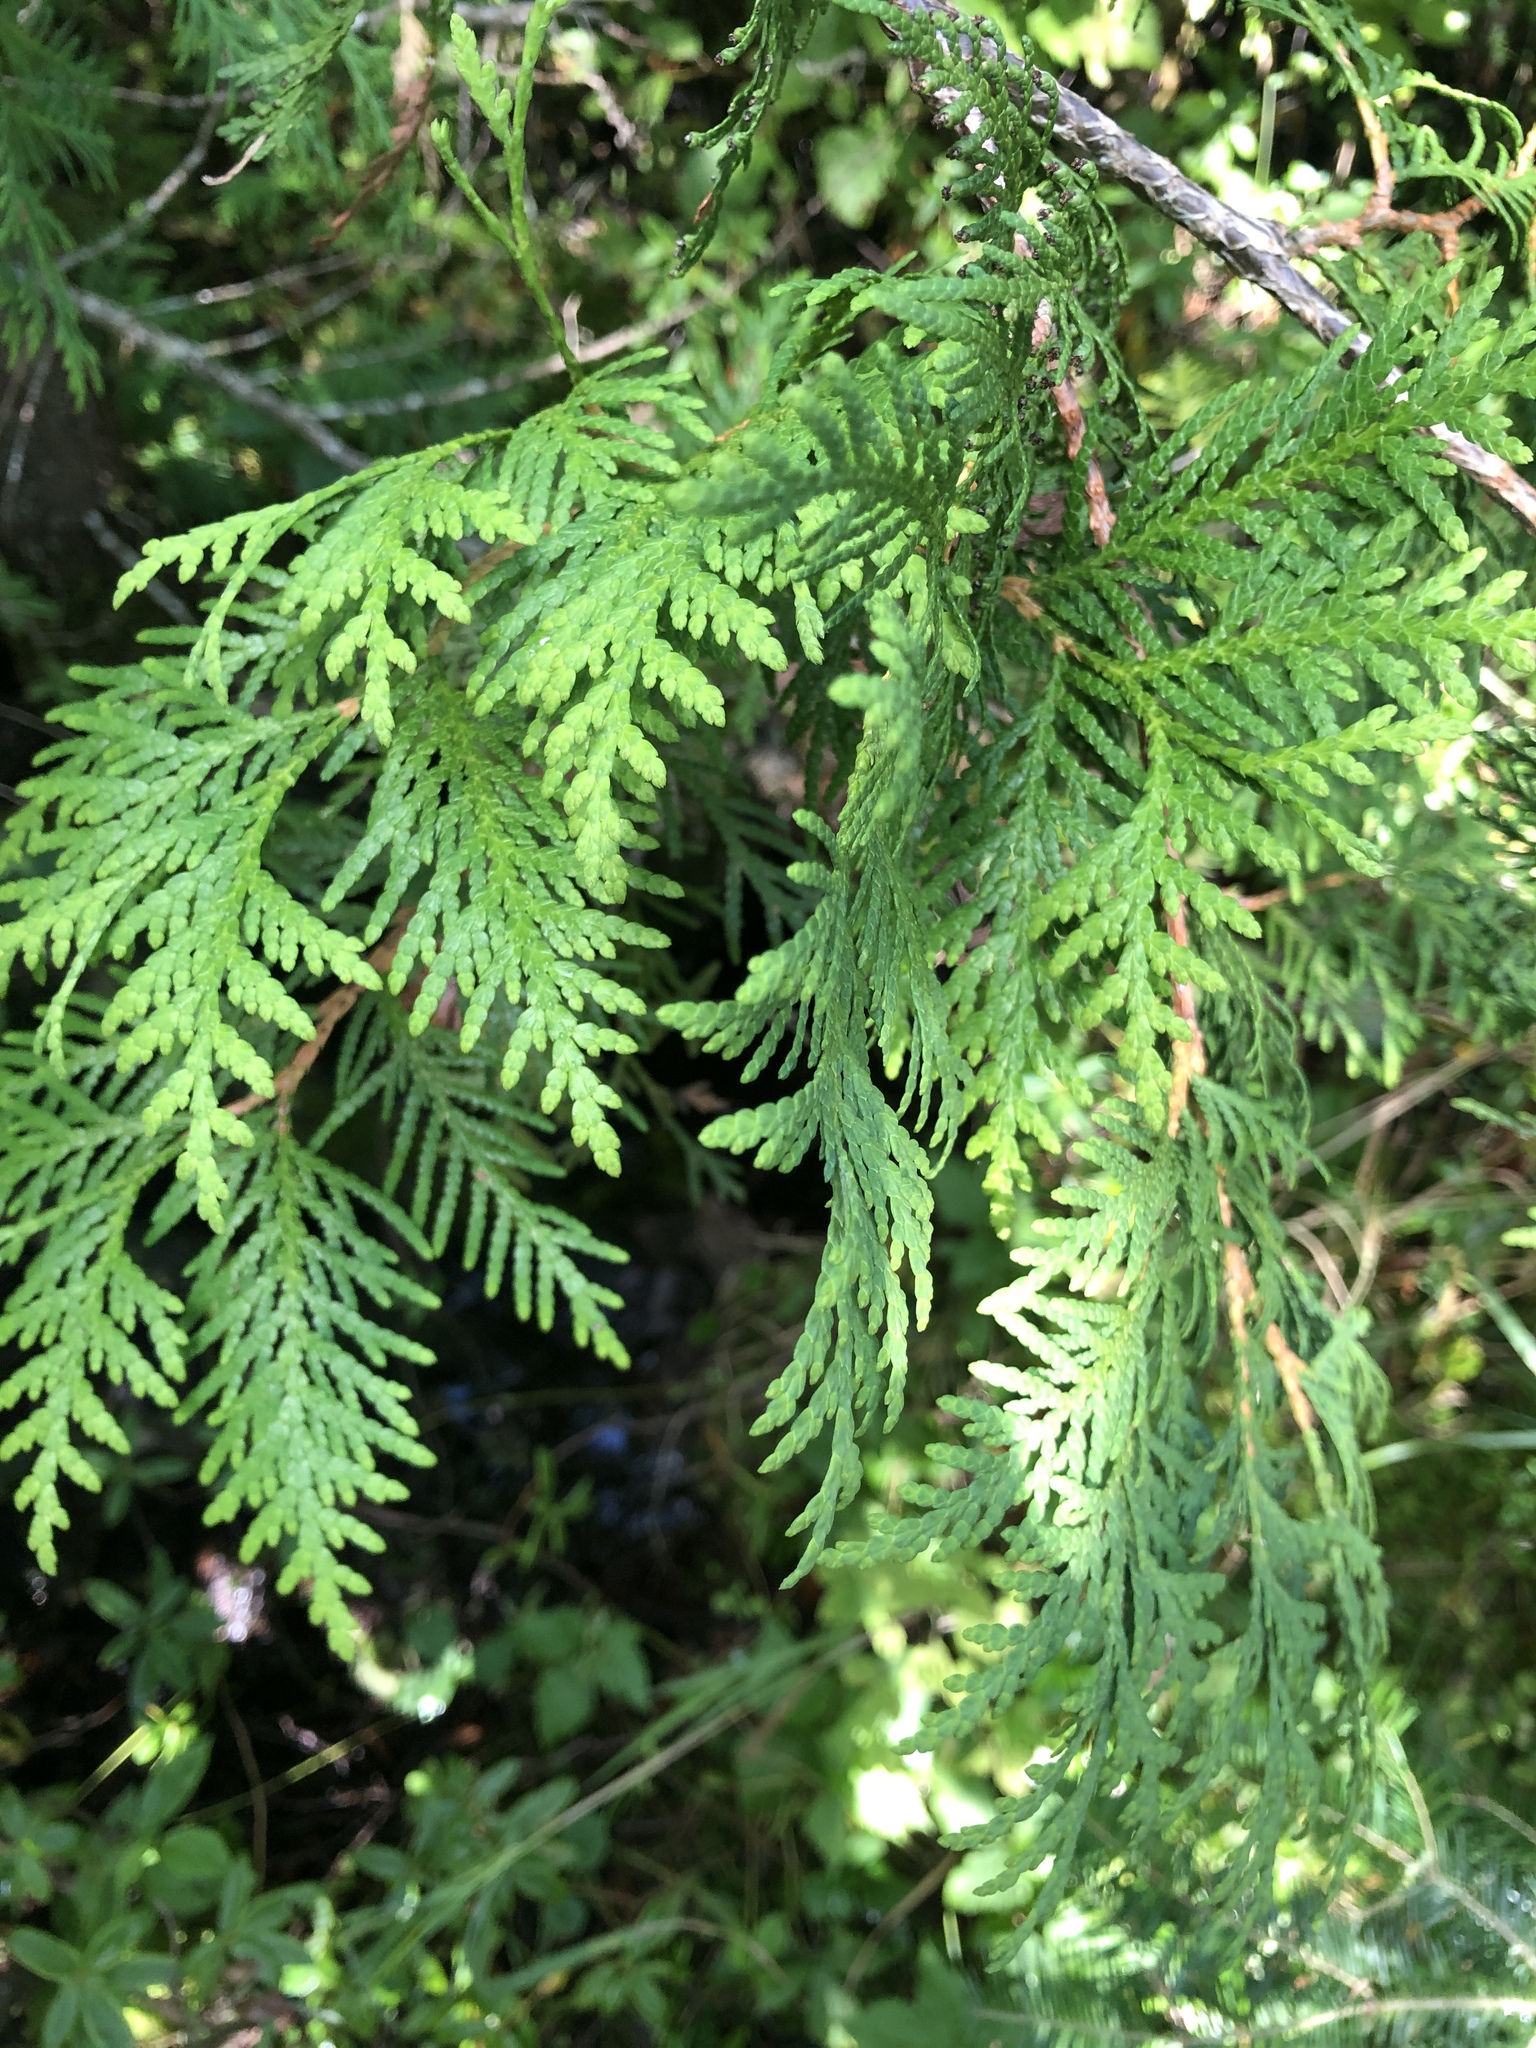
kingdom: Plantae
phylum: Tracheophyta
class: Pinopsida
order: Pinales
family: Cupressaceae
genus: Thuja
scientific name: Thuja occidentalis
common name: Northern white-cedar
